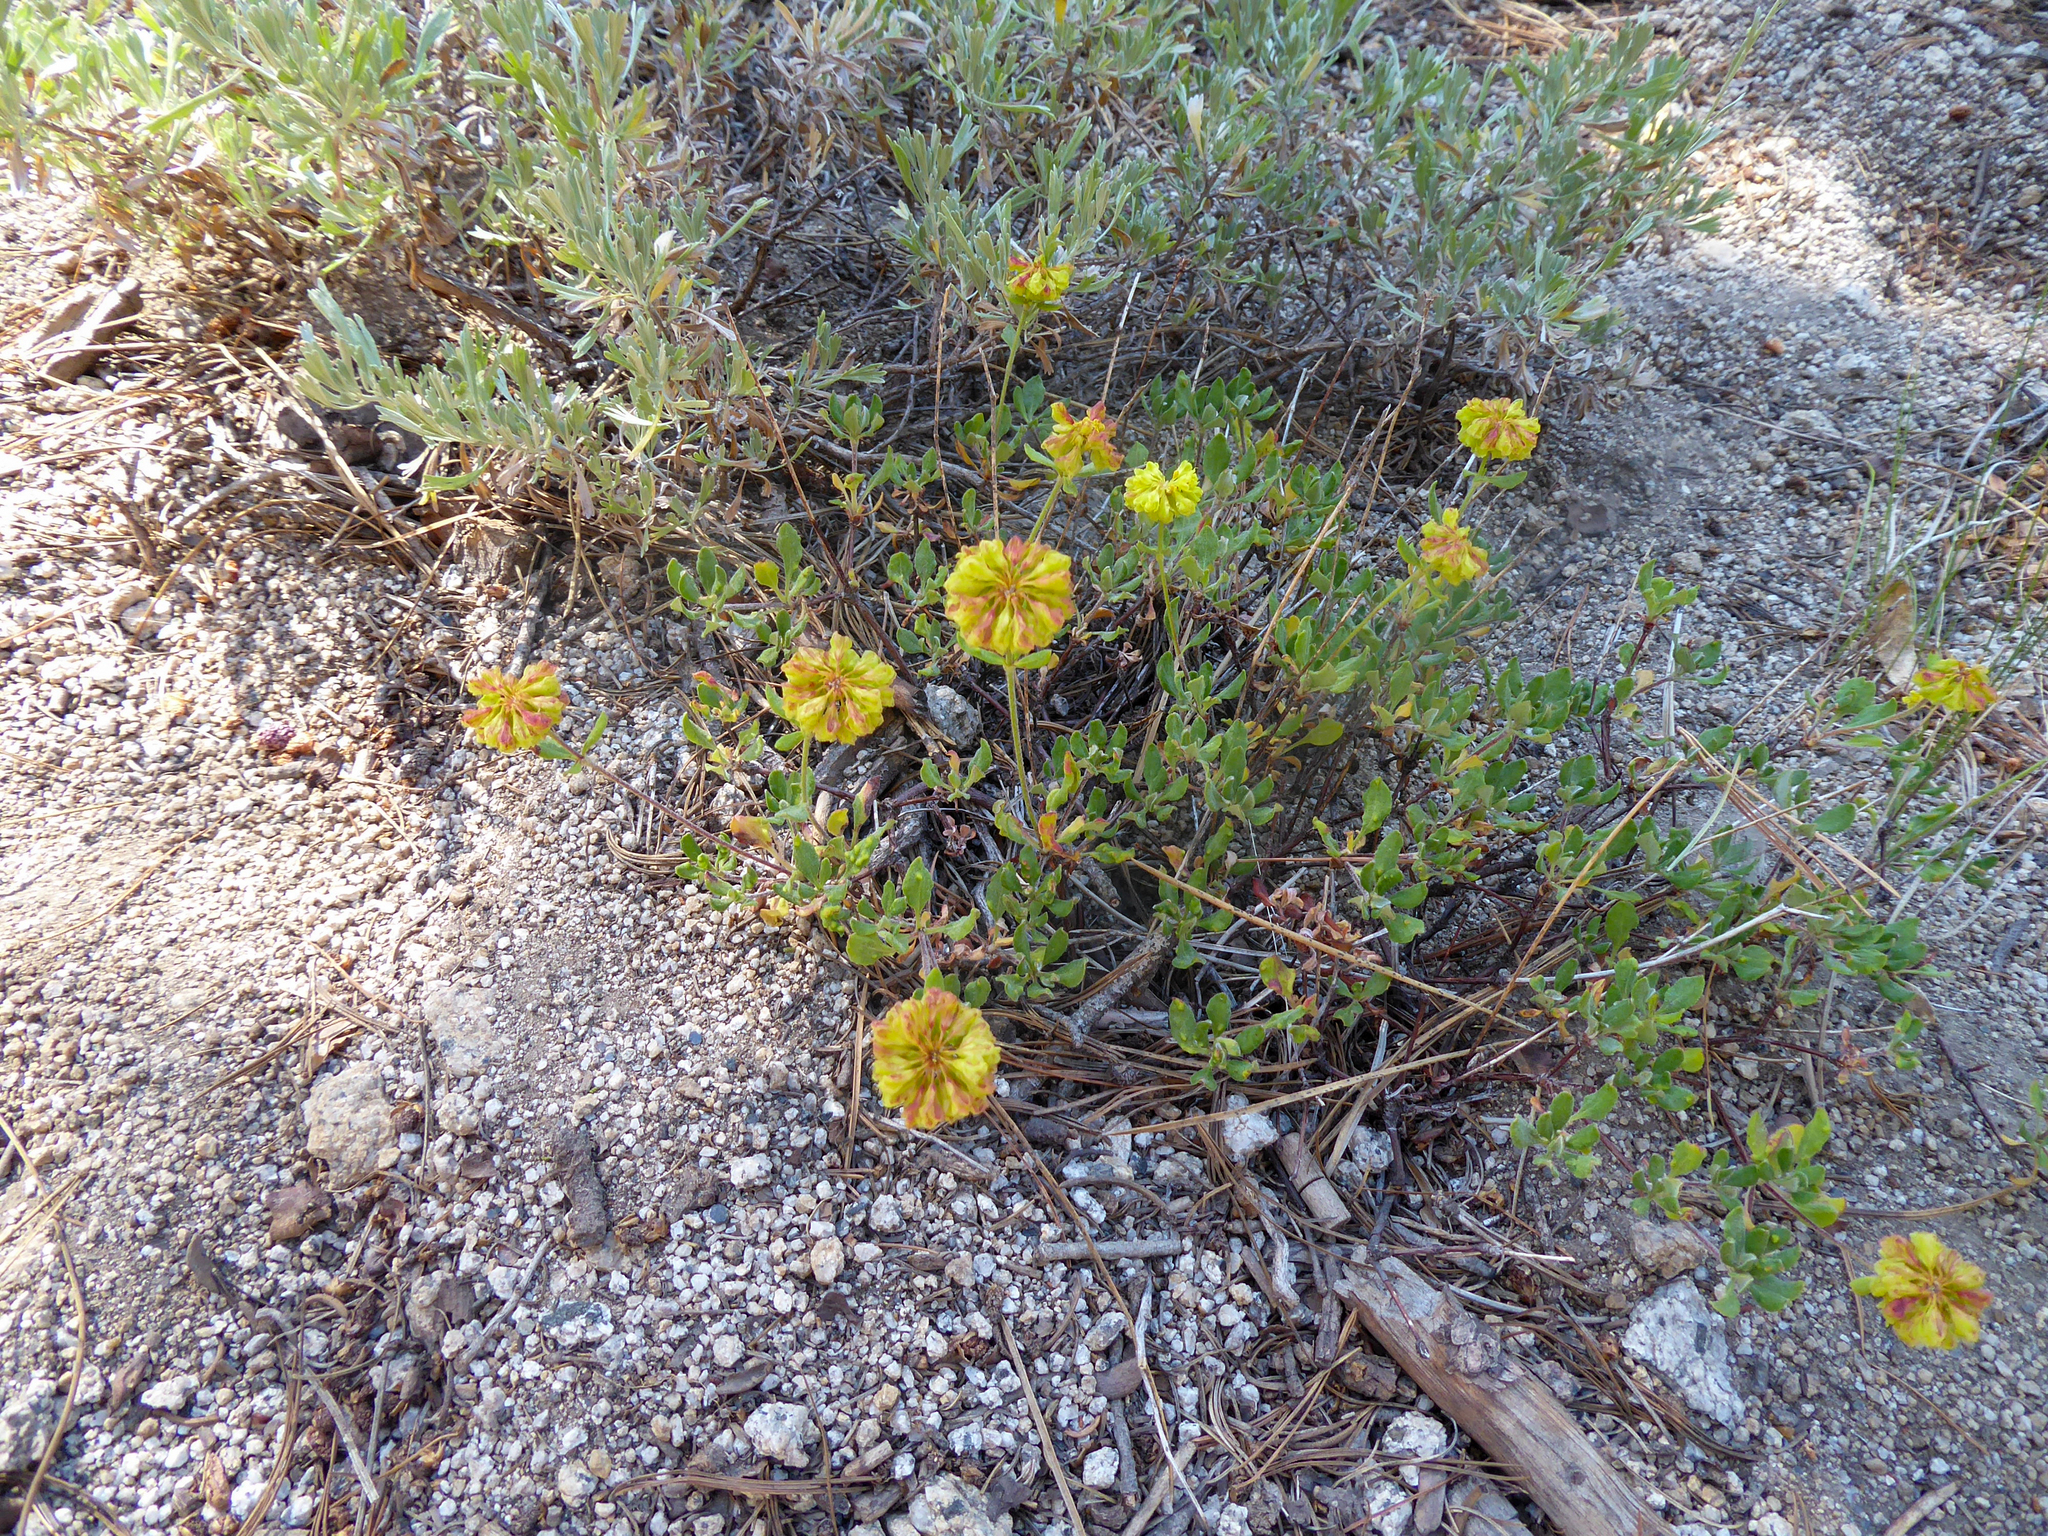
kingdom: Plantae
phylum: Tracheophyta
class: Magnoliopsida
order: Caryophyllales
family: Polygonaceae
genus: Eriogonum
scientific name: Eriogonum umbellatum
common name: Sulfur-buckwheat
